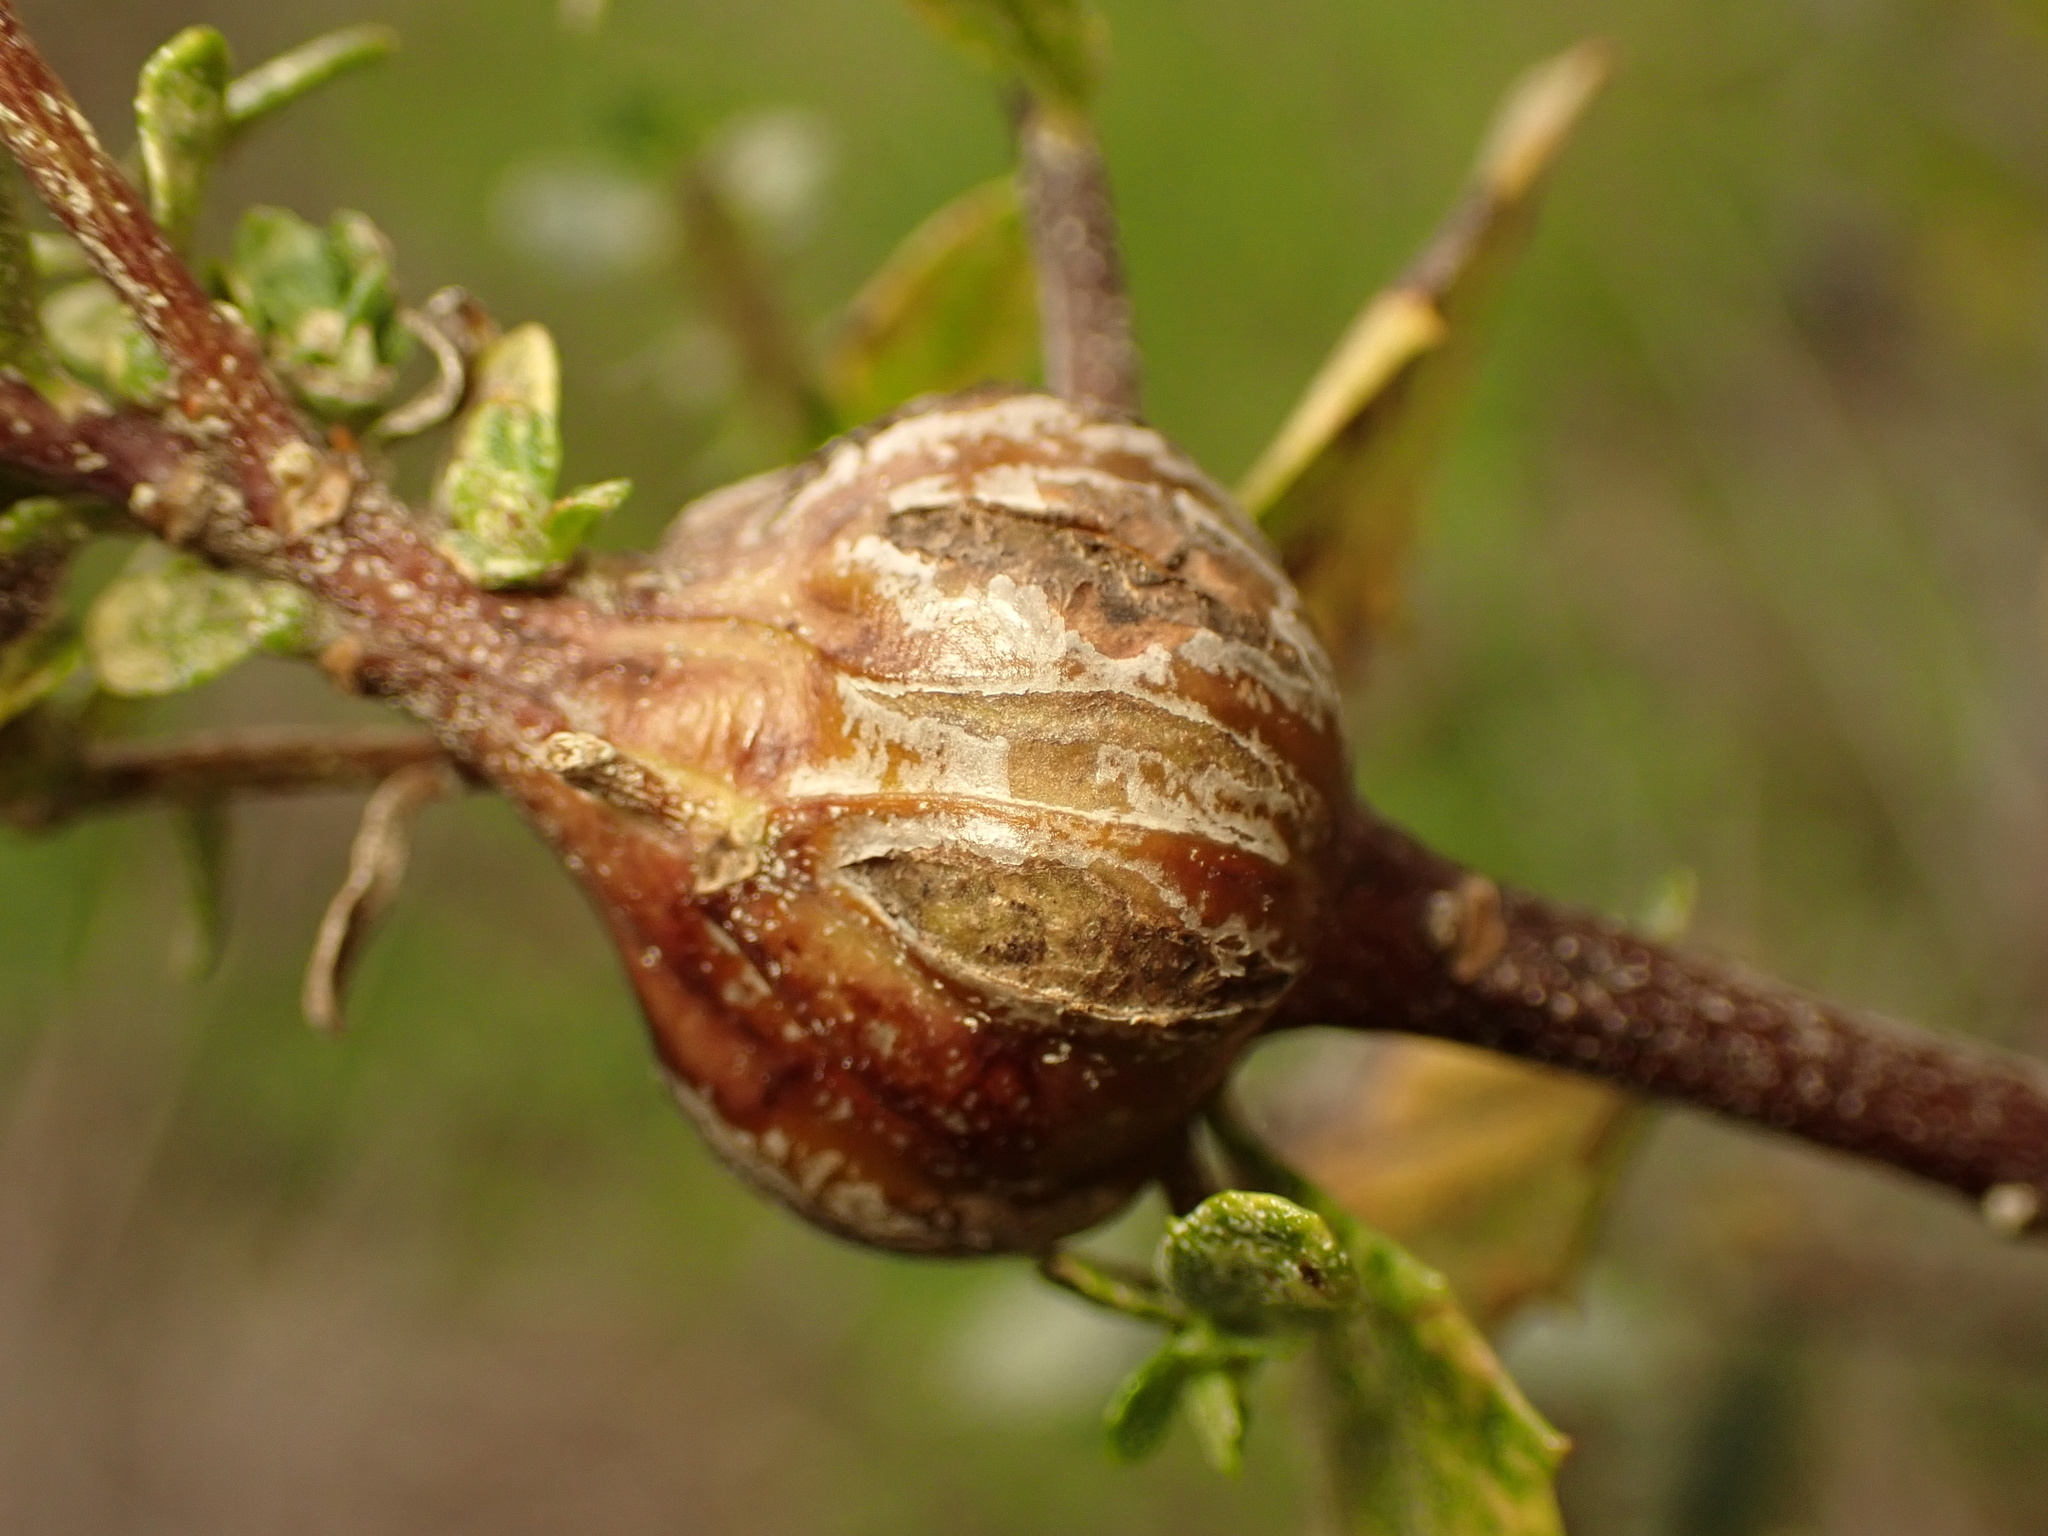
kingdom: Animalia
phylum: Arthropoda
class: Insecta
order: Lepidoptera
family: Gelechiidae
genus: Gnorimoschema
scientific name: Gnorimoschema baccharisella
